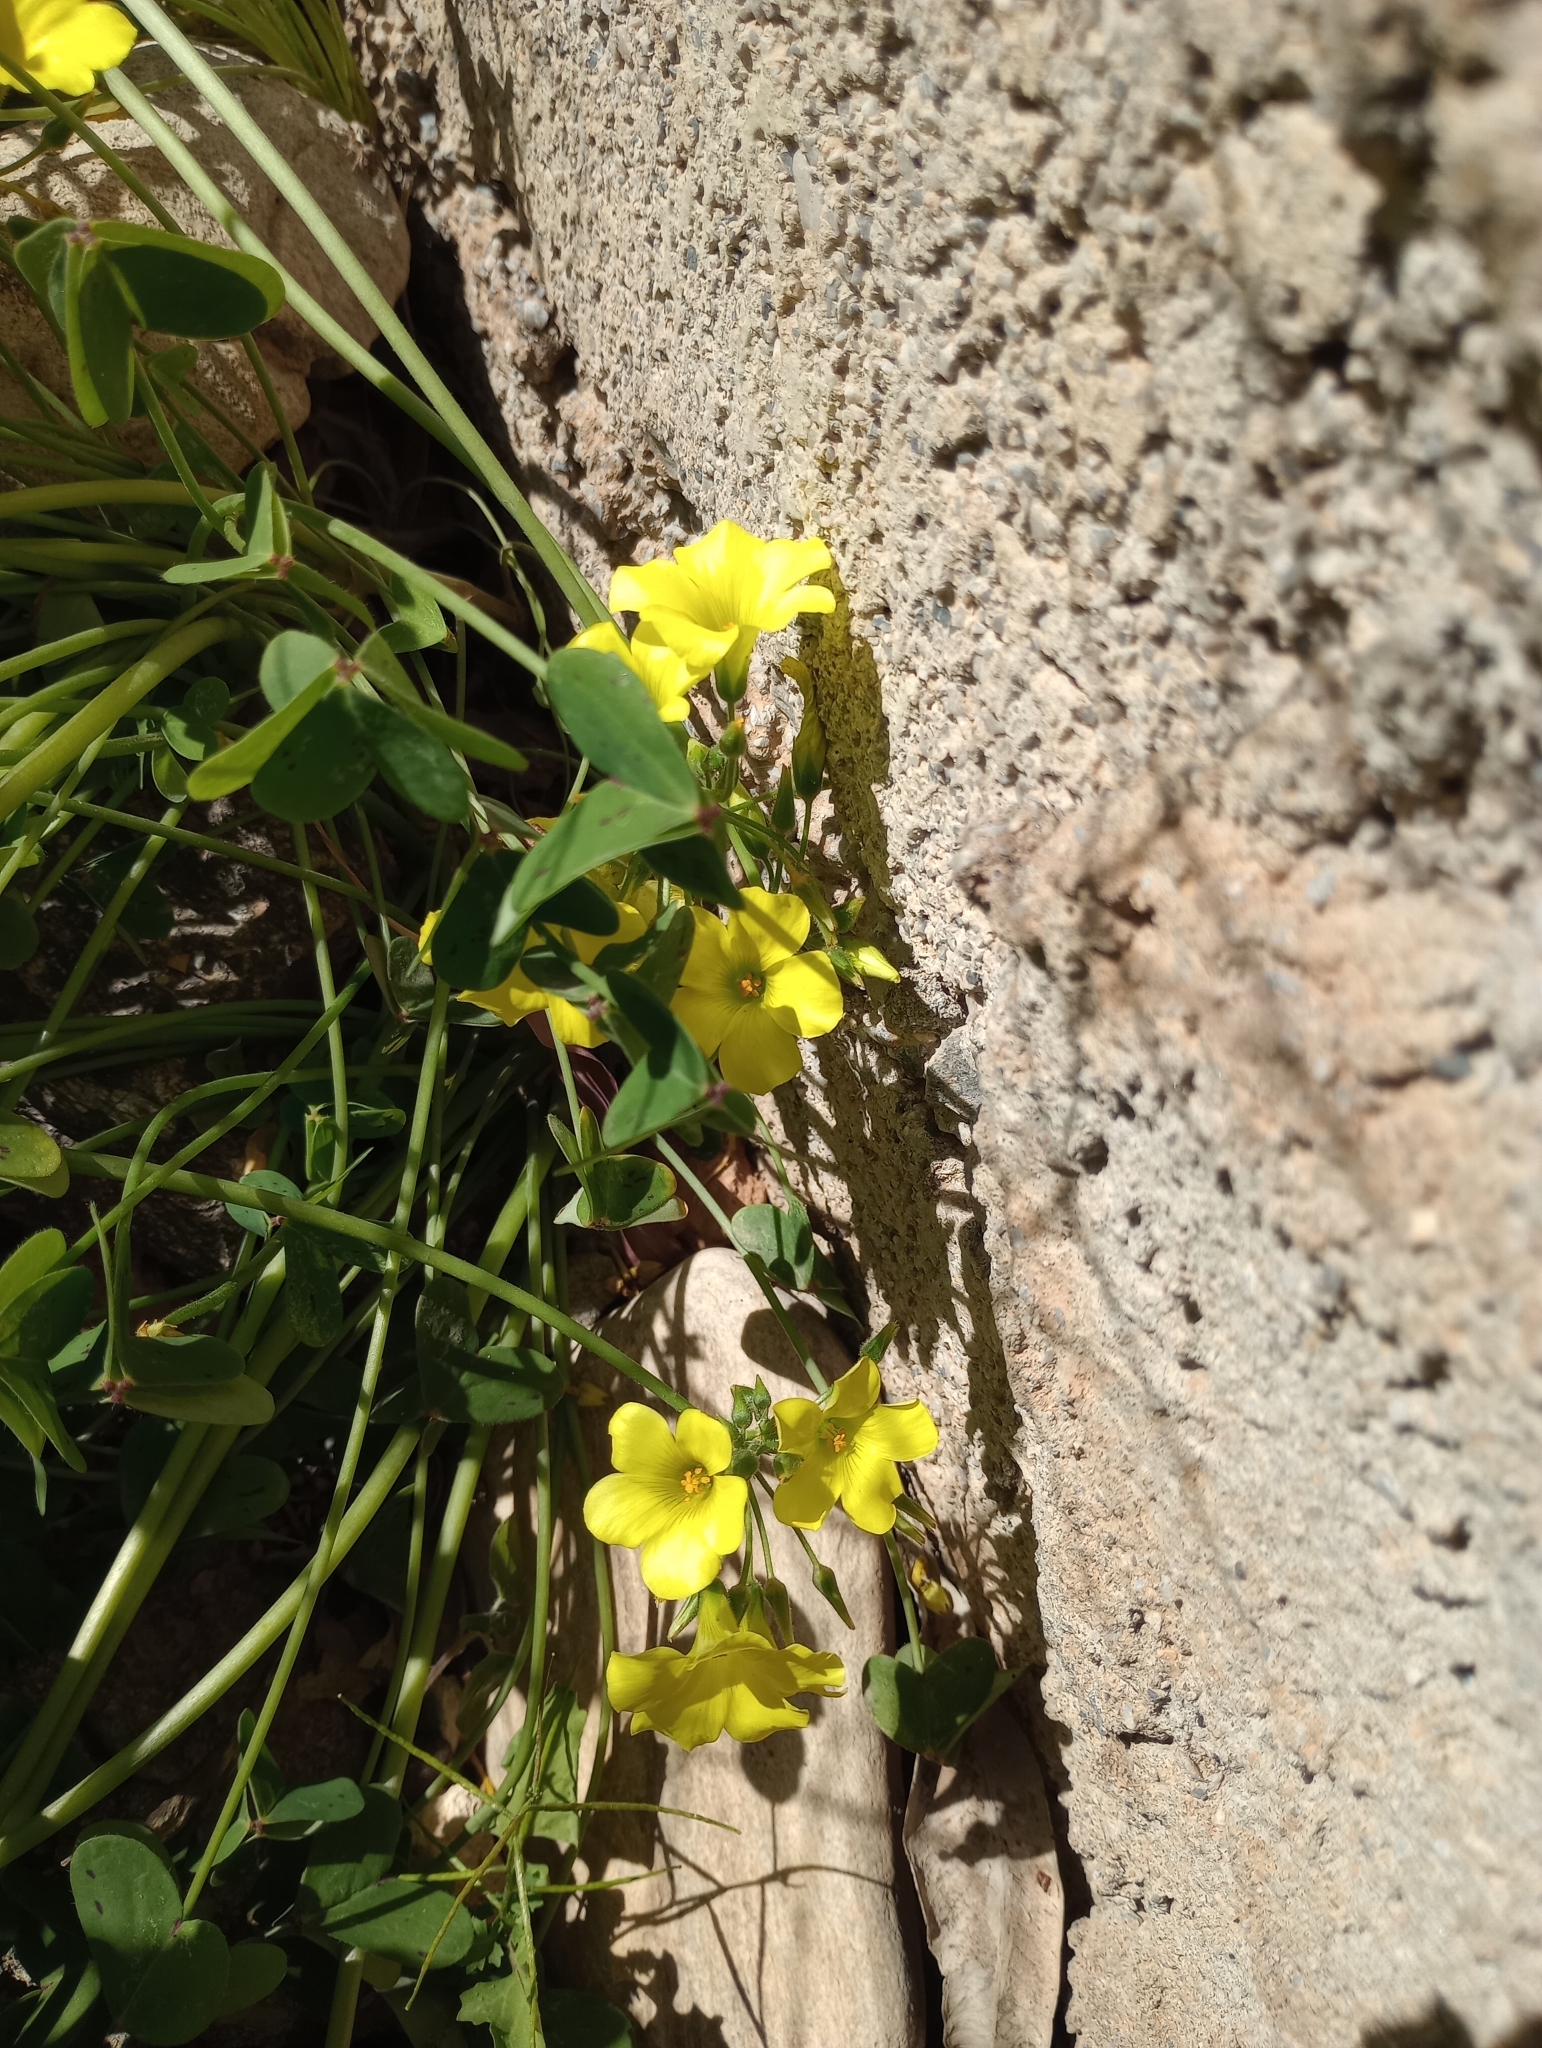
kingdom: Plantae
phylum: Tracheophyta
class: Magnoliopsida
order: Oxalidales
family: Oxalidaceae
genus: Oxalis
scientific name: Oxalis pes-caprae
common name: Bermuda-buttercup
